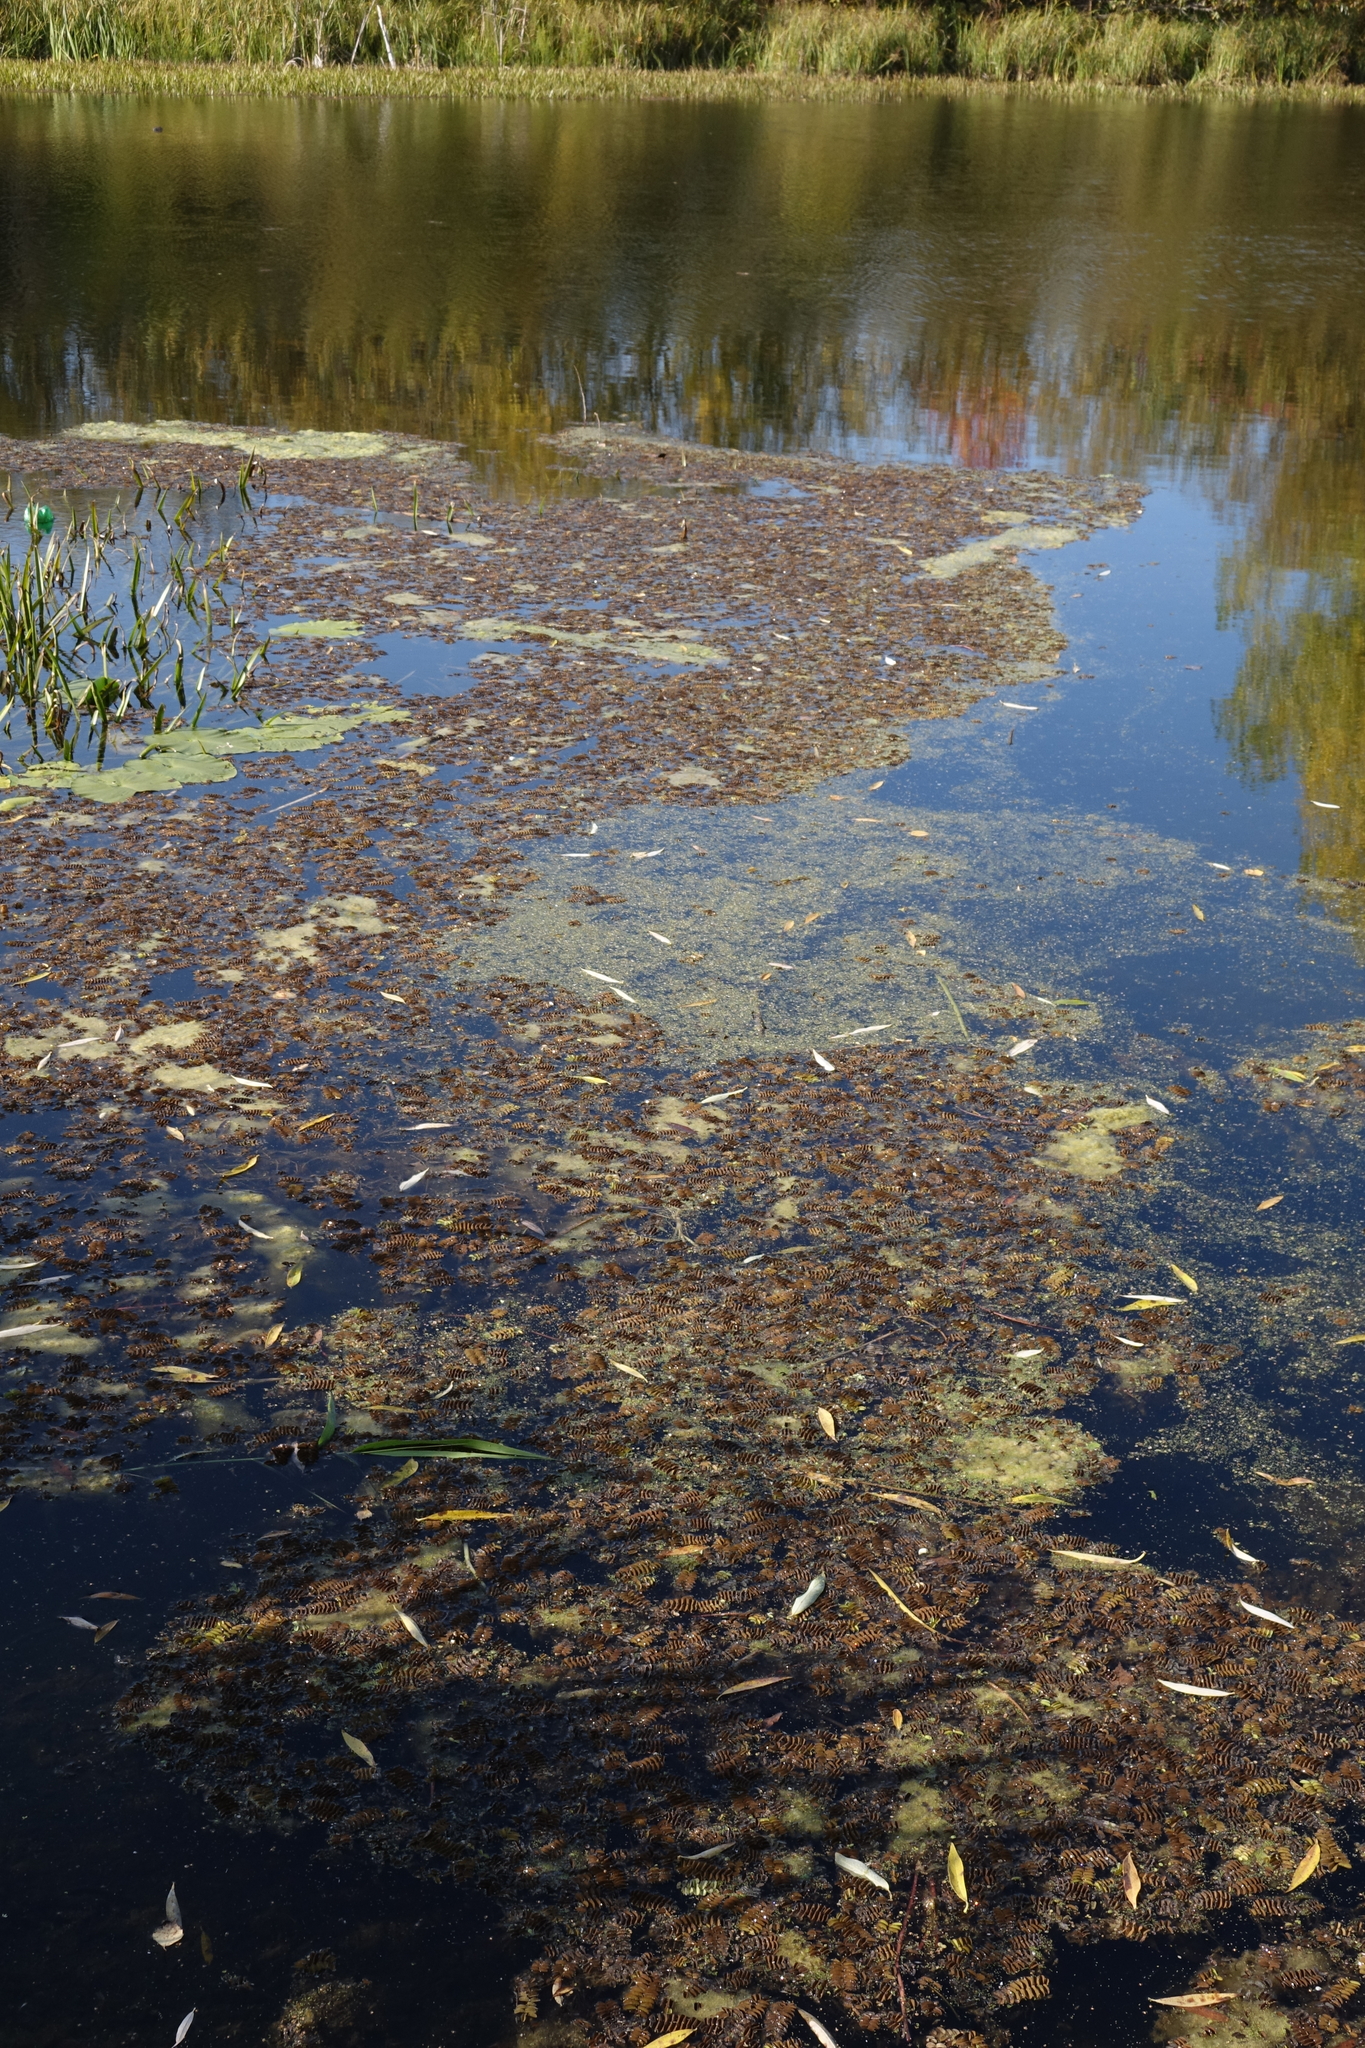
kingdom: Plantae
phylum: Tracheophyta
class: Polypodiopsida
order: Salviniales
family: Salviniaceae
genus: Salvinia
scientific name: Salvinia natans
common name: Floating fern
